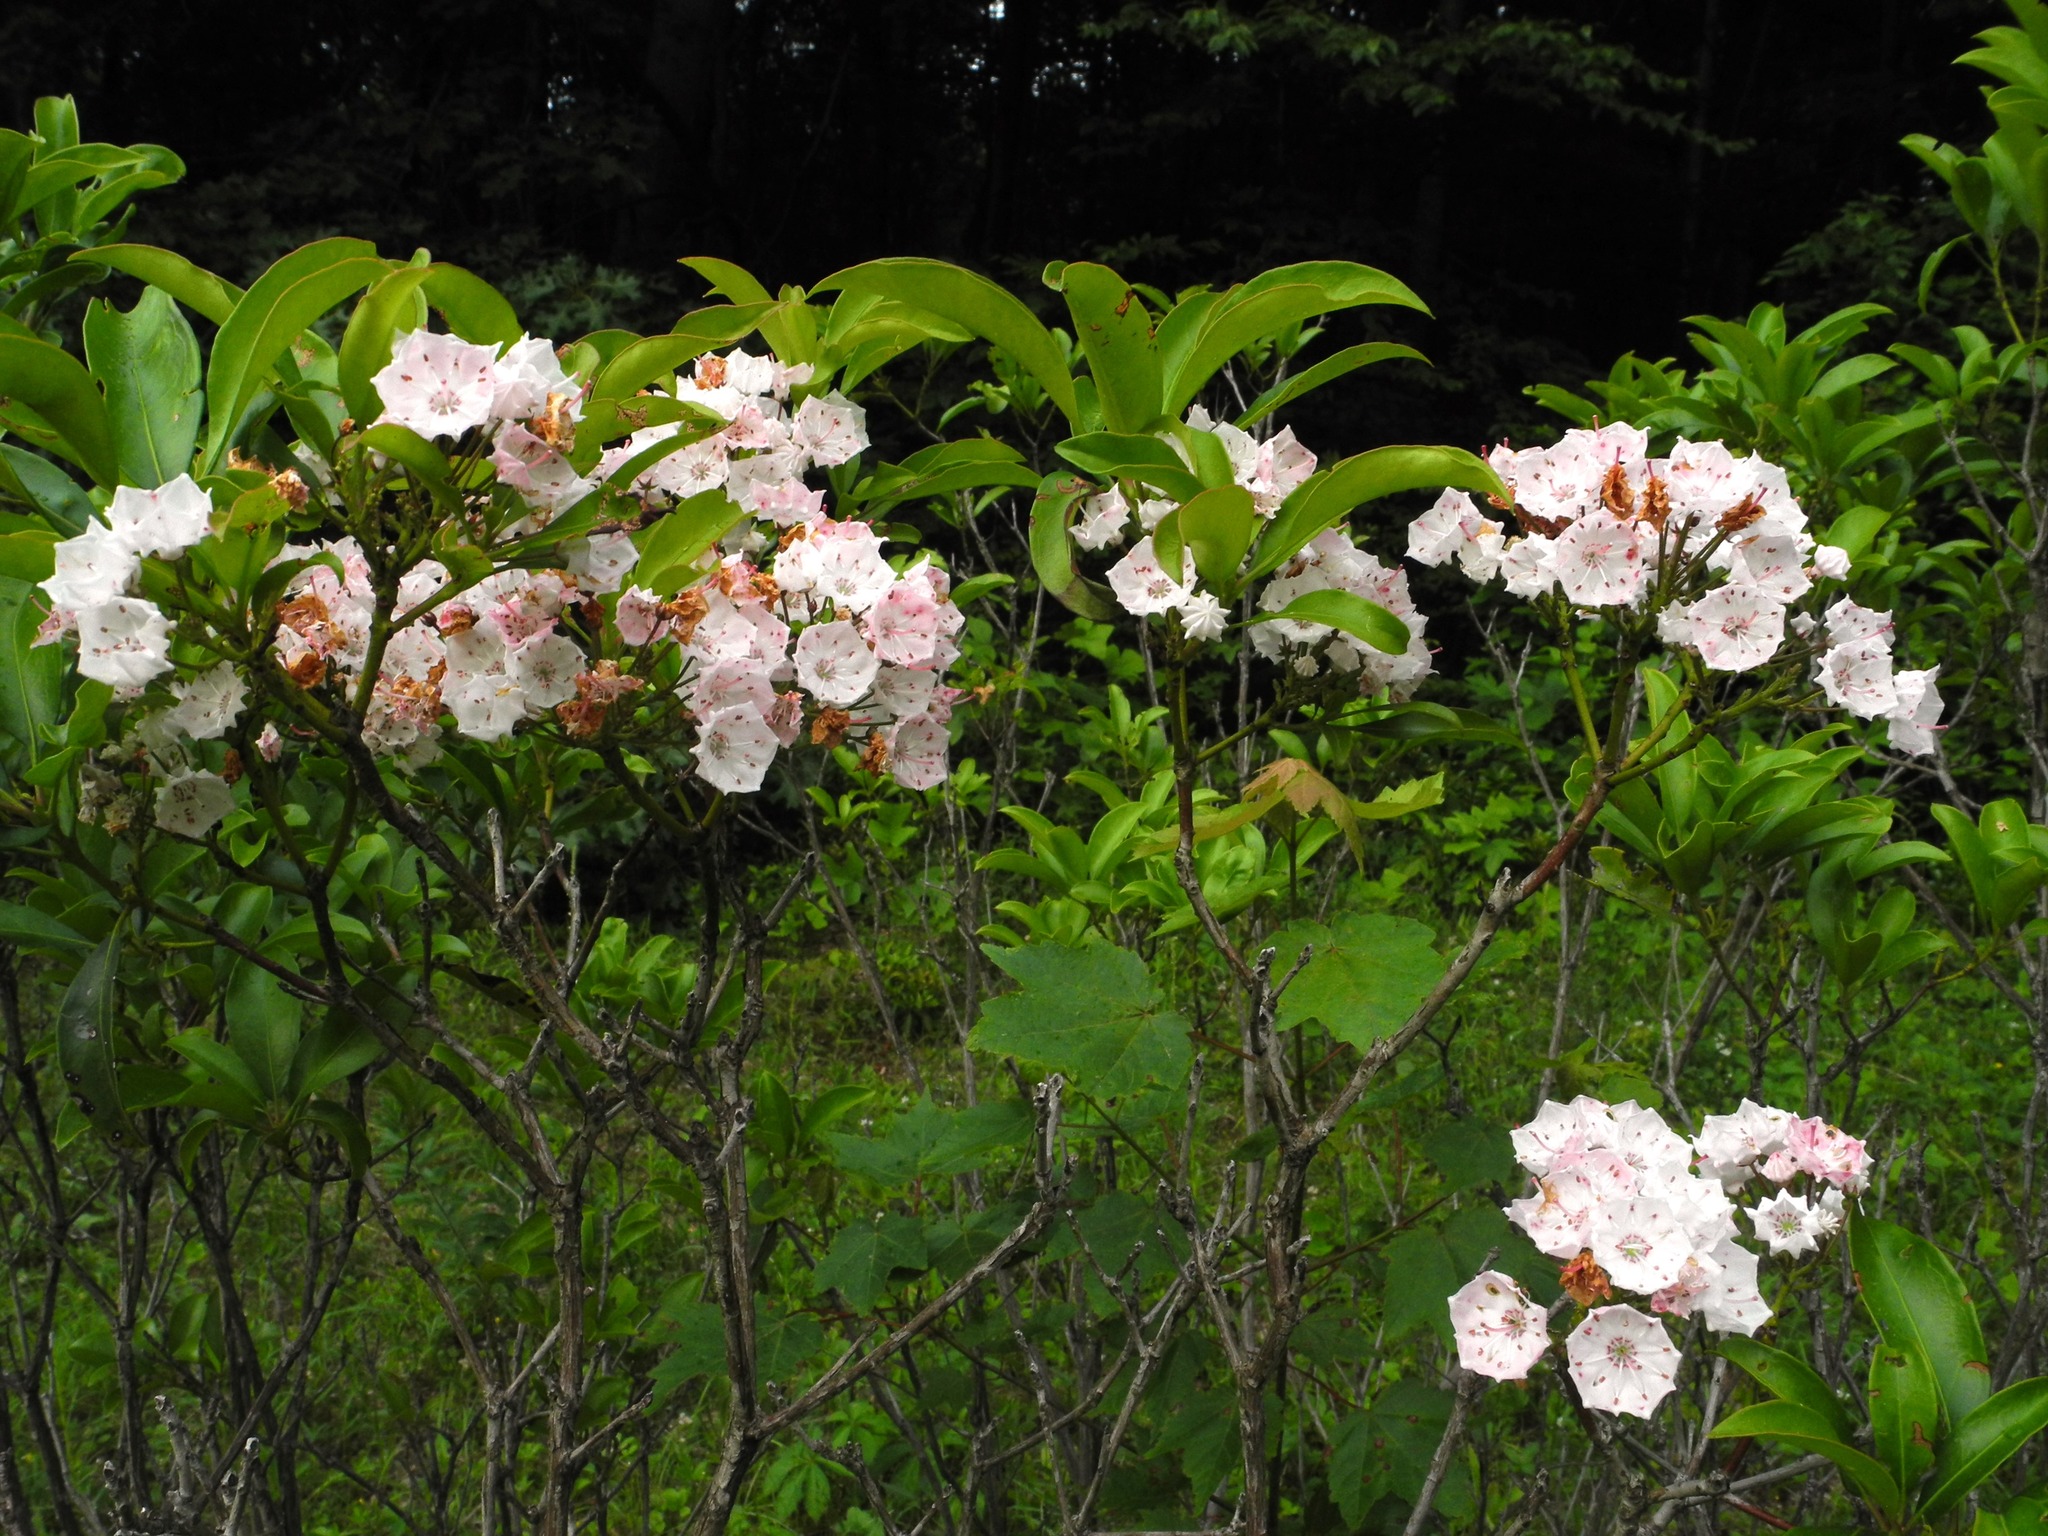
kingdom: Plantae
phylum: Tracheophyta
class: Magnoliopsida
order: Ericales
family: Ericaceae
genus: Kalmia
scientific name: Kalmia latifolia
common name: Mountain-laurel
